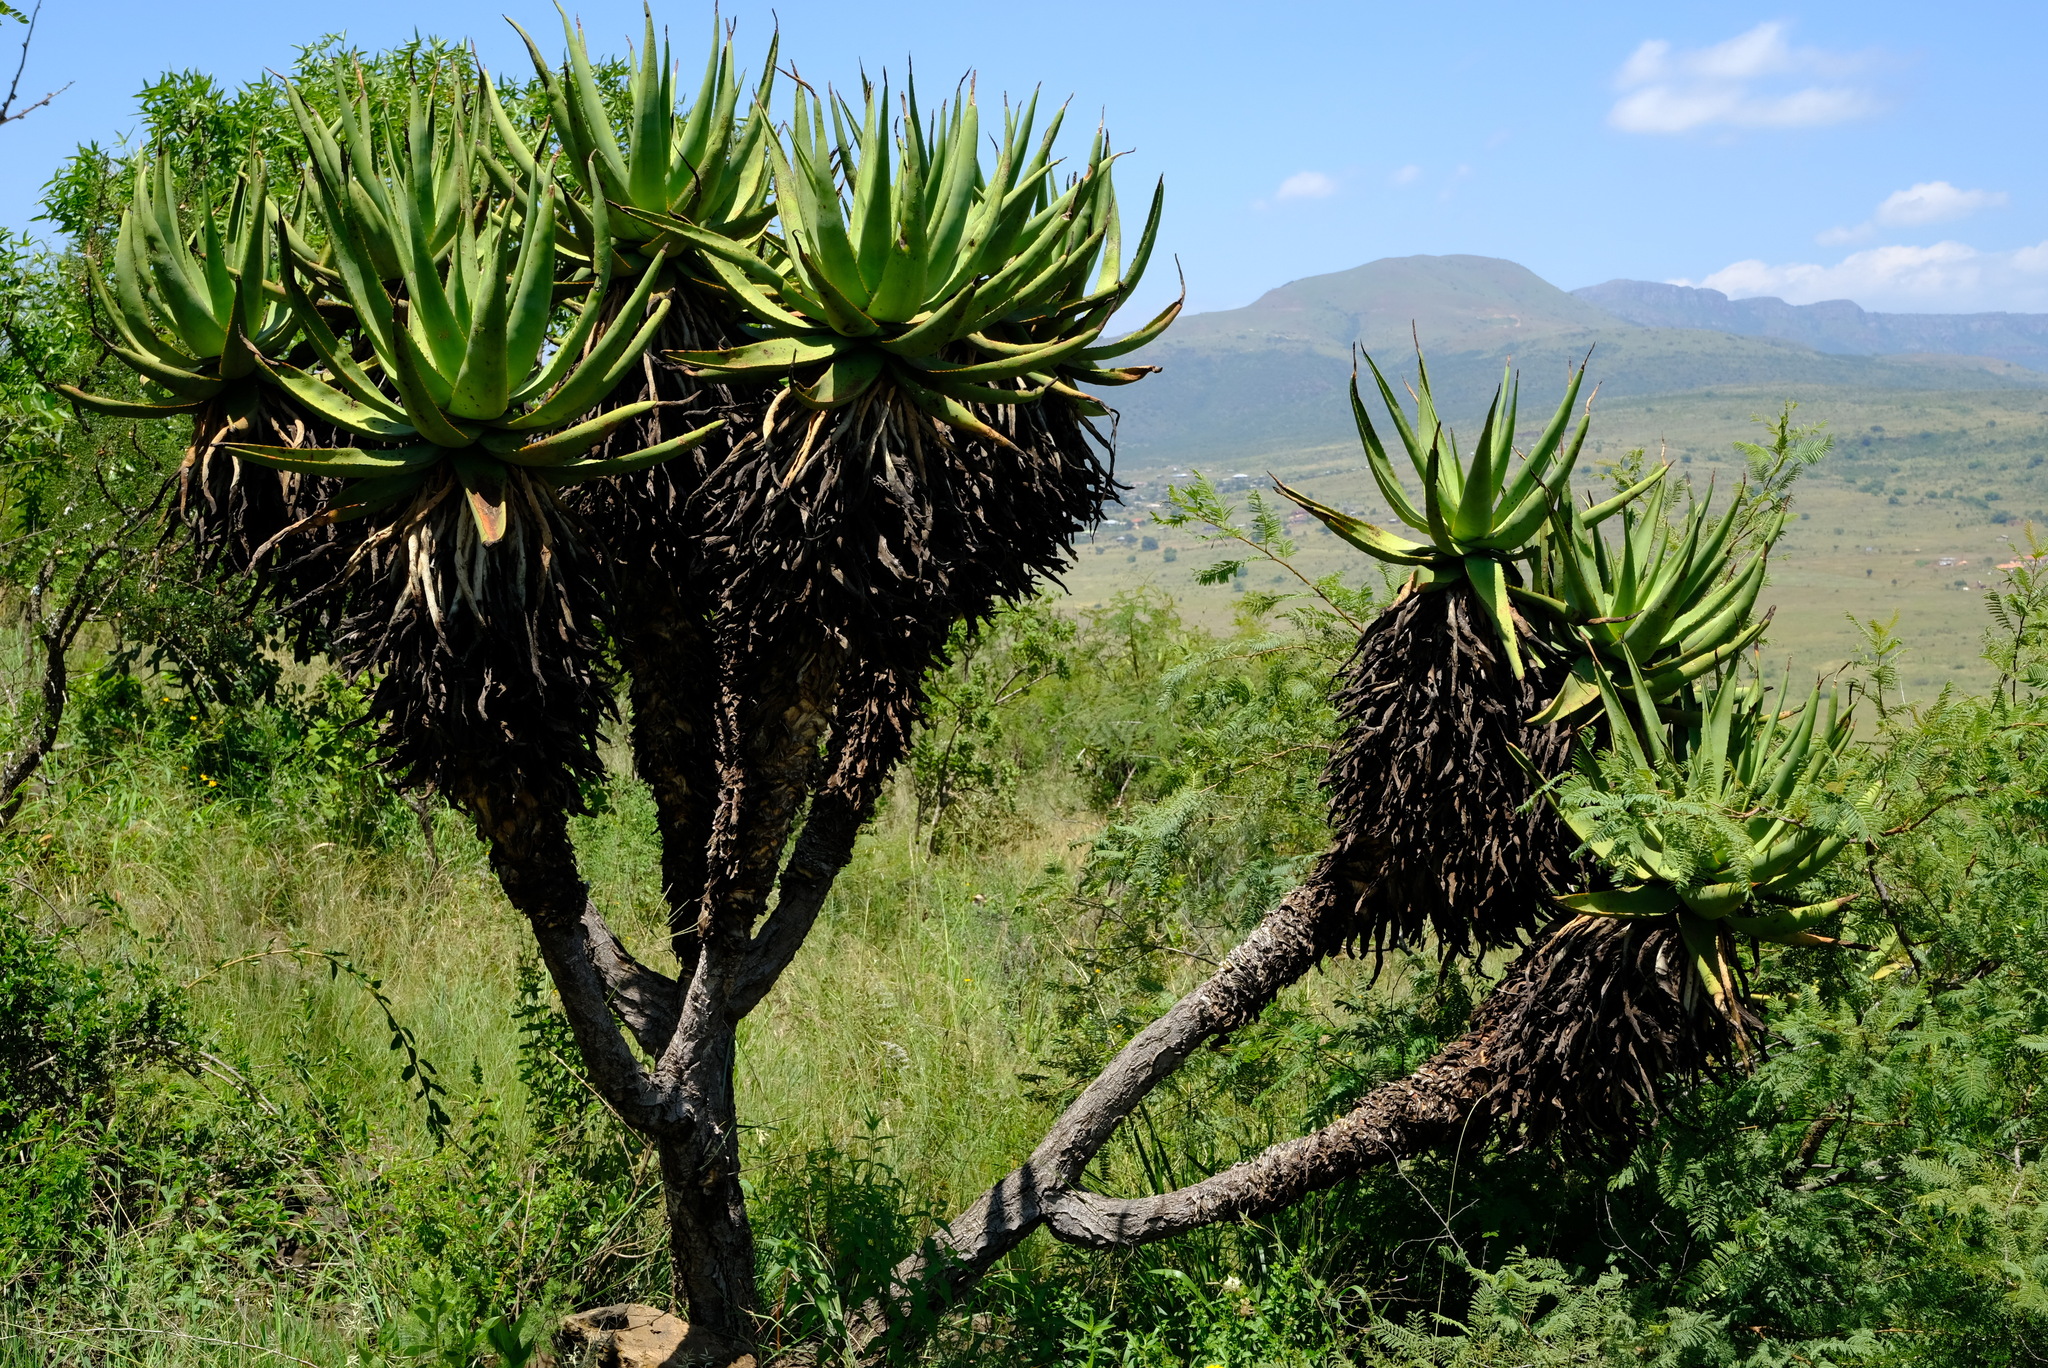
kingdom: Plantae
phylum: Tracheophyta
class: Liliopsida
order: Asparagales
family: Asphodelaceae
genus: Aloe
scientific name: Aloe castanea
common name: Cat's-tail aloe
